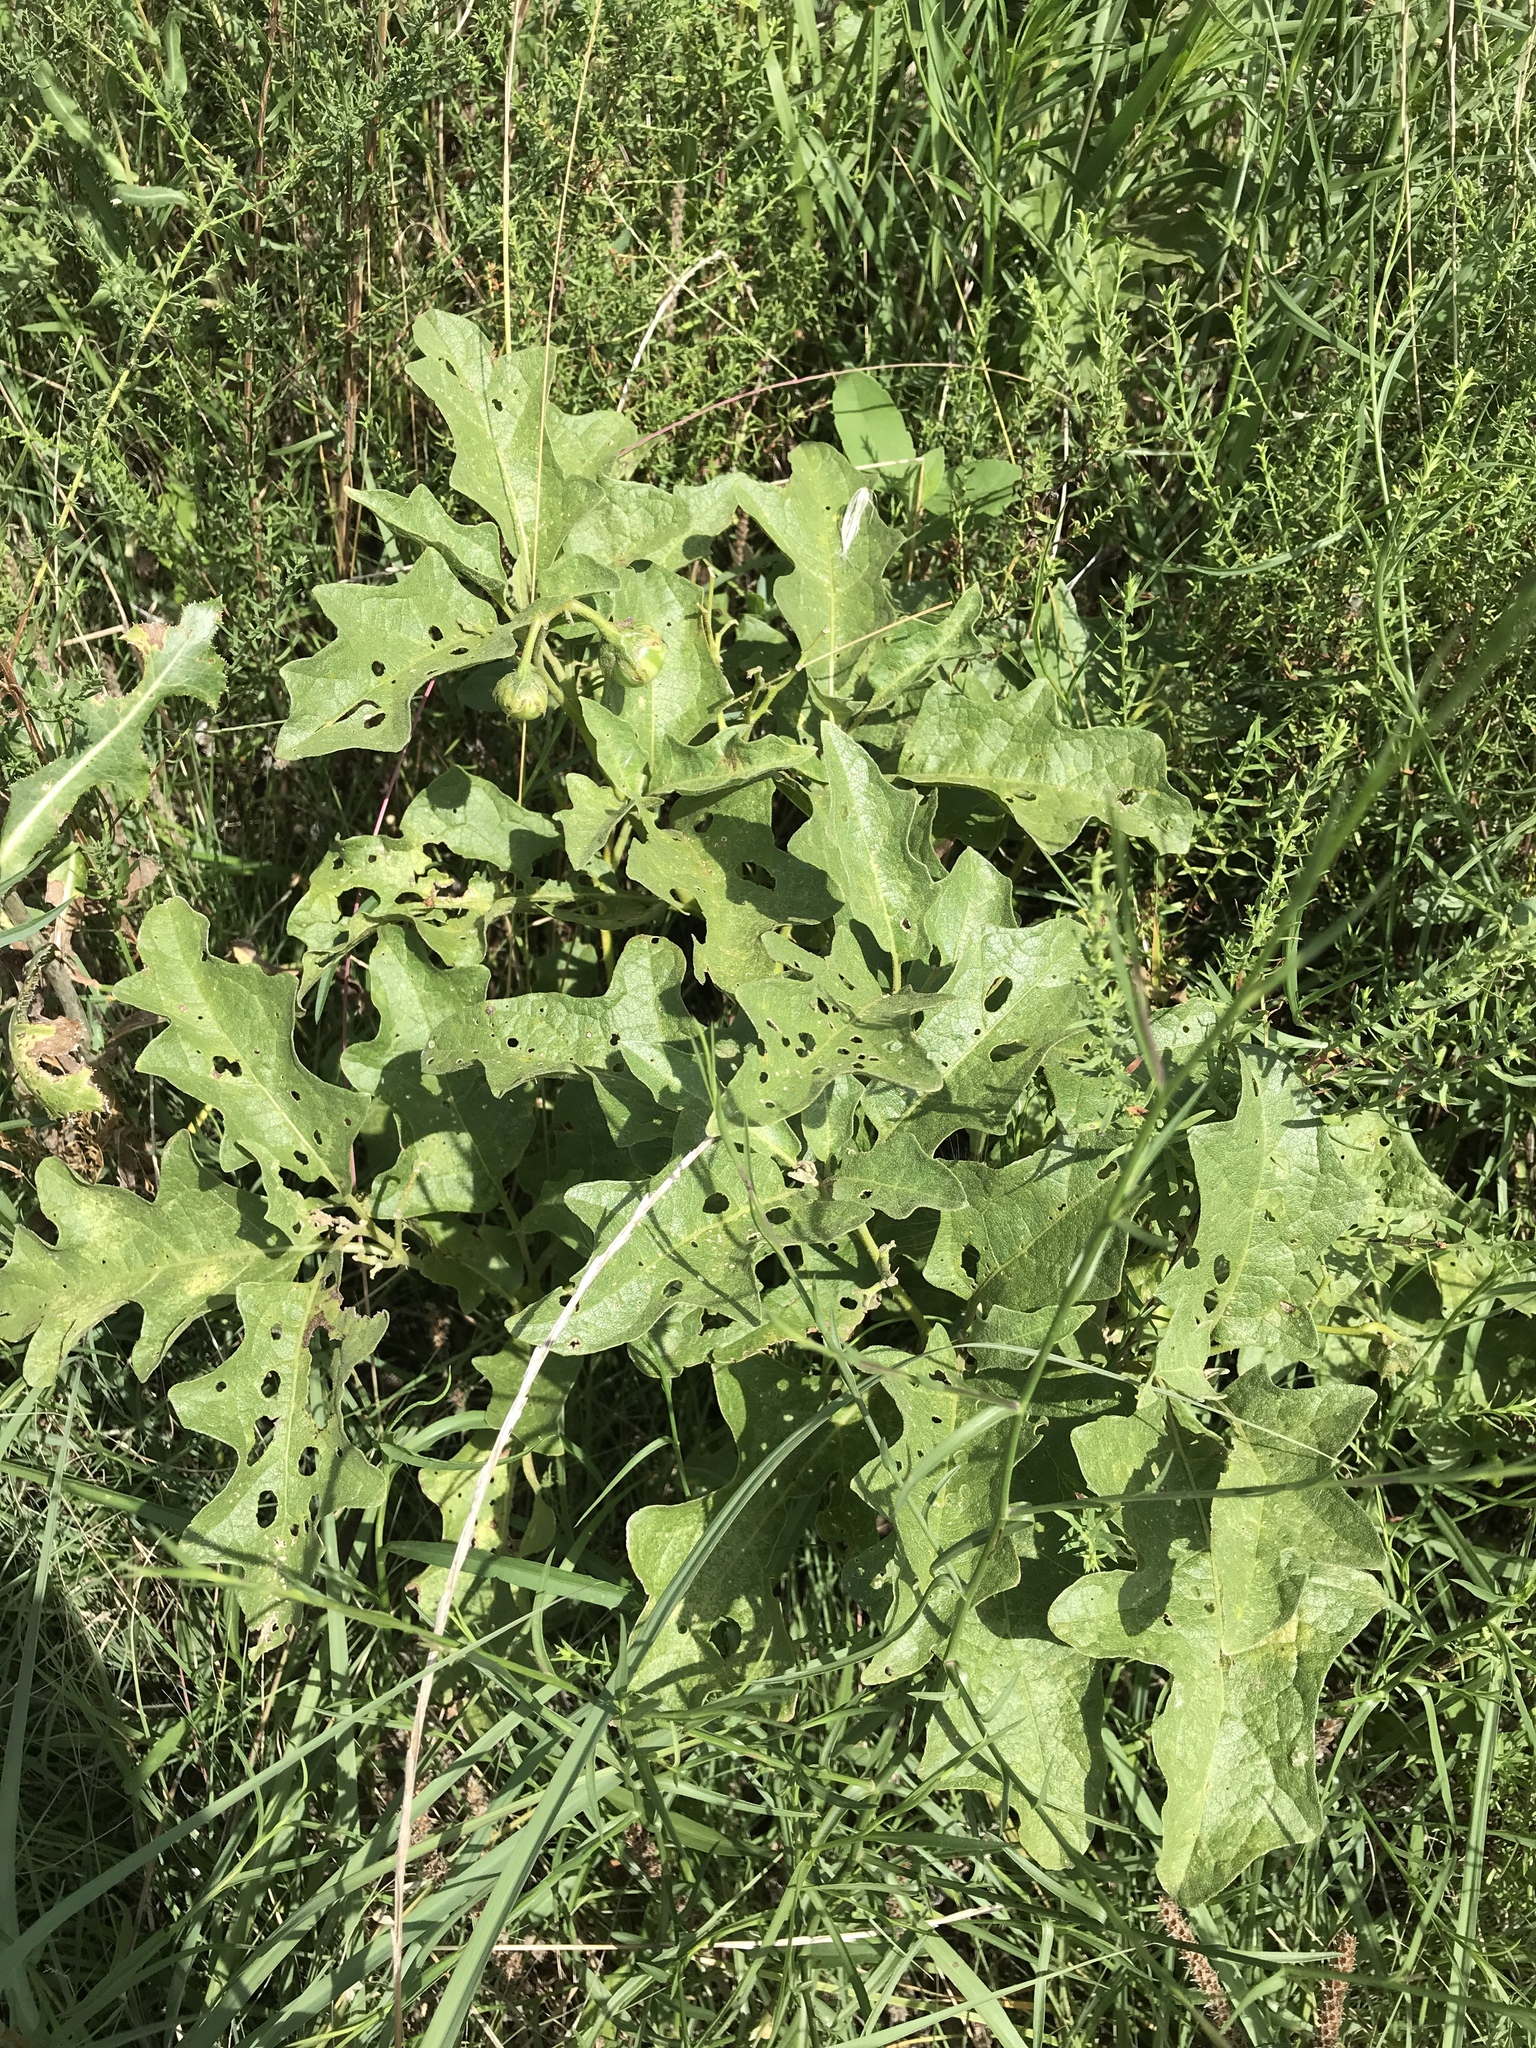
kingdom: Plantae
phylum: Tracheophyta
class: Magnoliopsida
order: Solanales
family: Solanaceae
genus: Solanum
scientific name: Solanum dimidiatum
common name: Carolina horse-nettle
